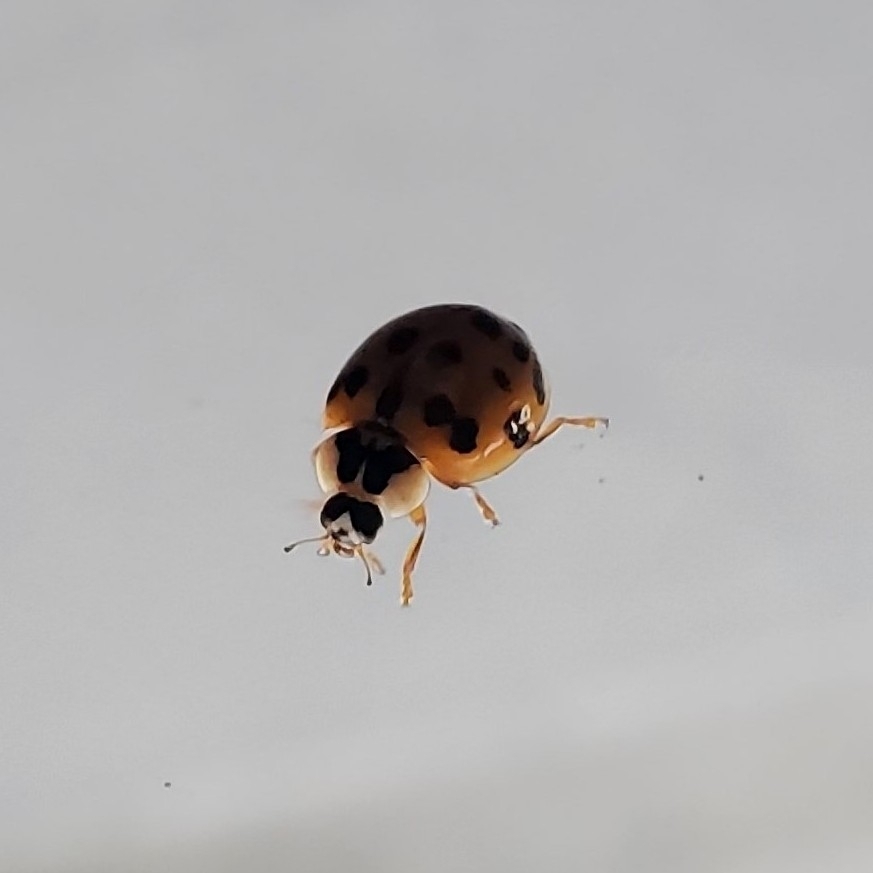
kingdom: Animalia
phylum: Arthropoda
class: Insecta
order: Coleoptera
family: Coccinellidae
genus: Harmonia
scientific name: Harmonia axyridis
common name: Harlequin ladybird
